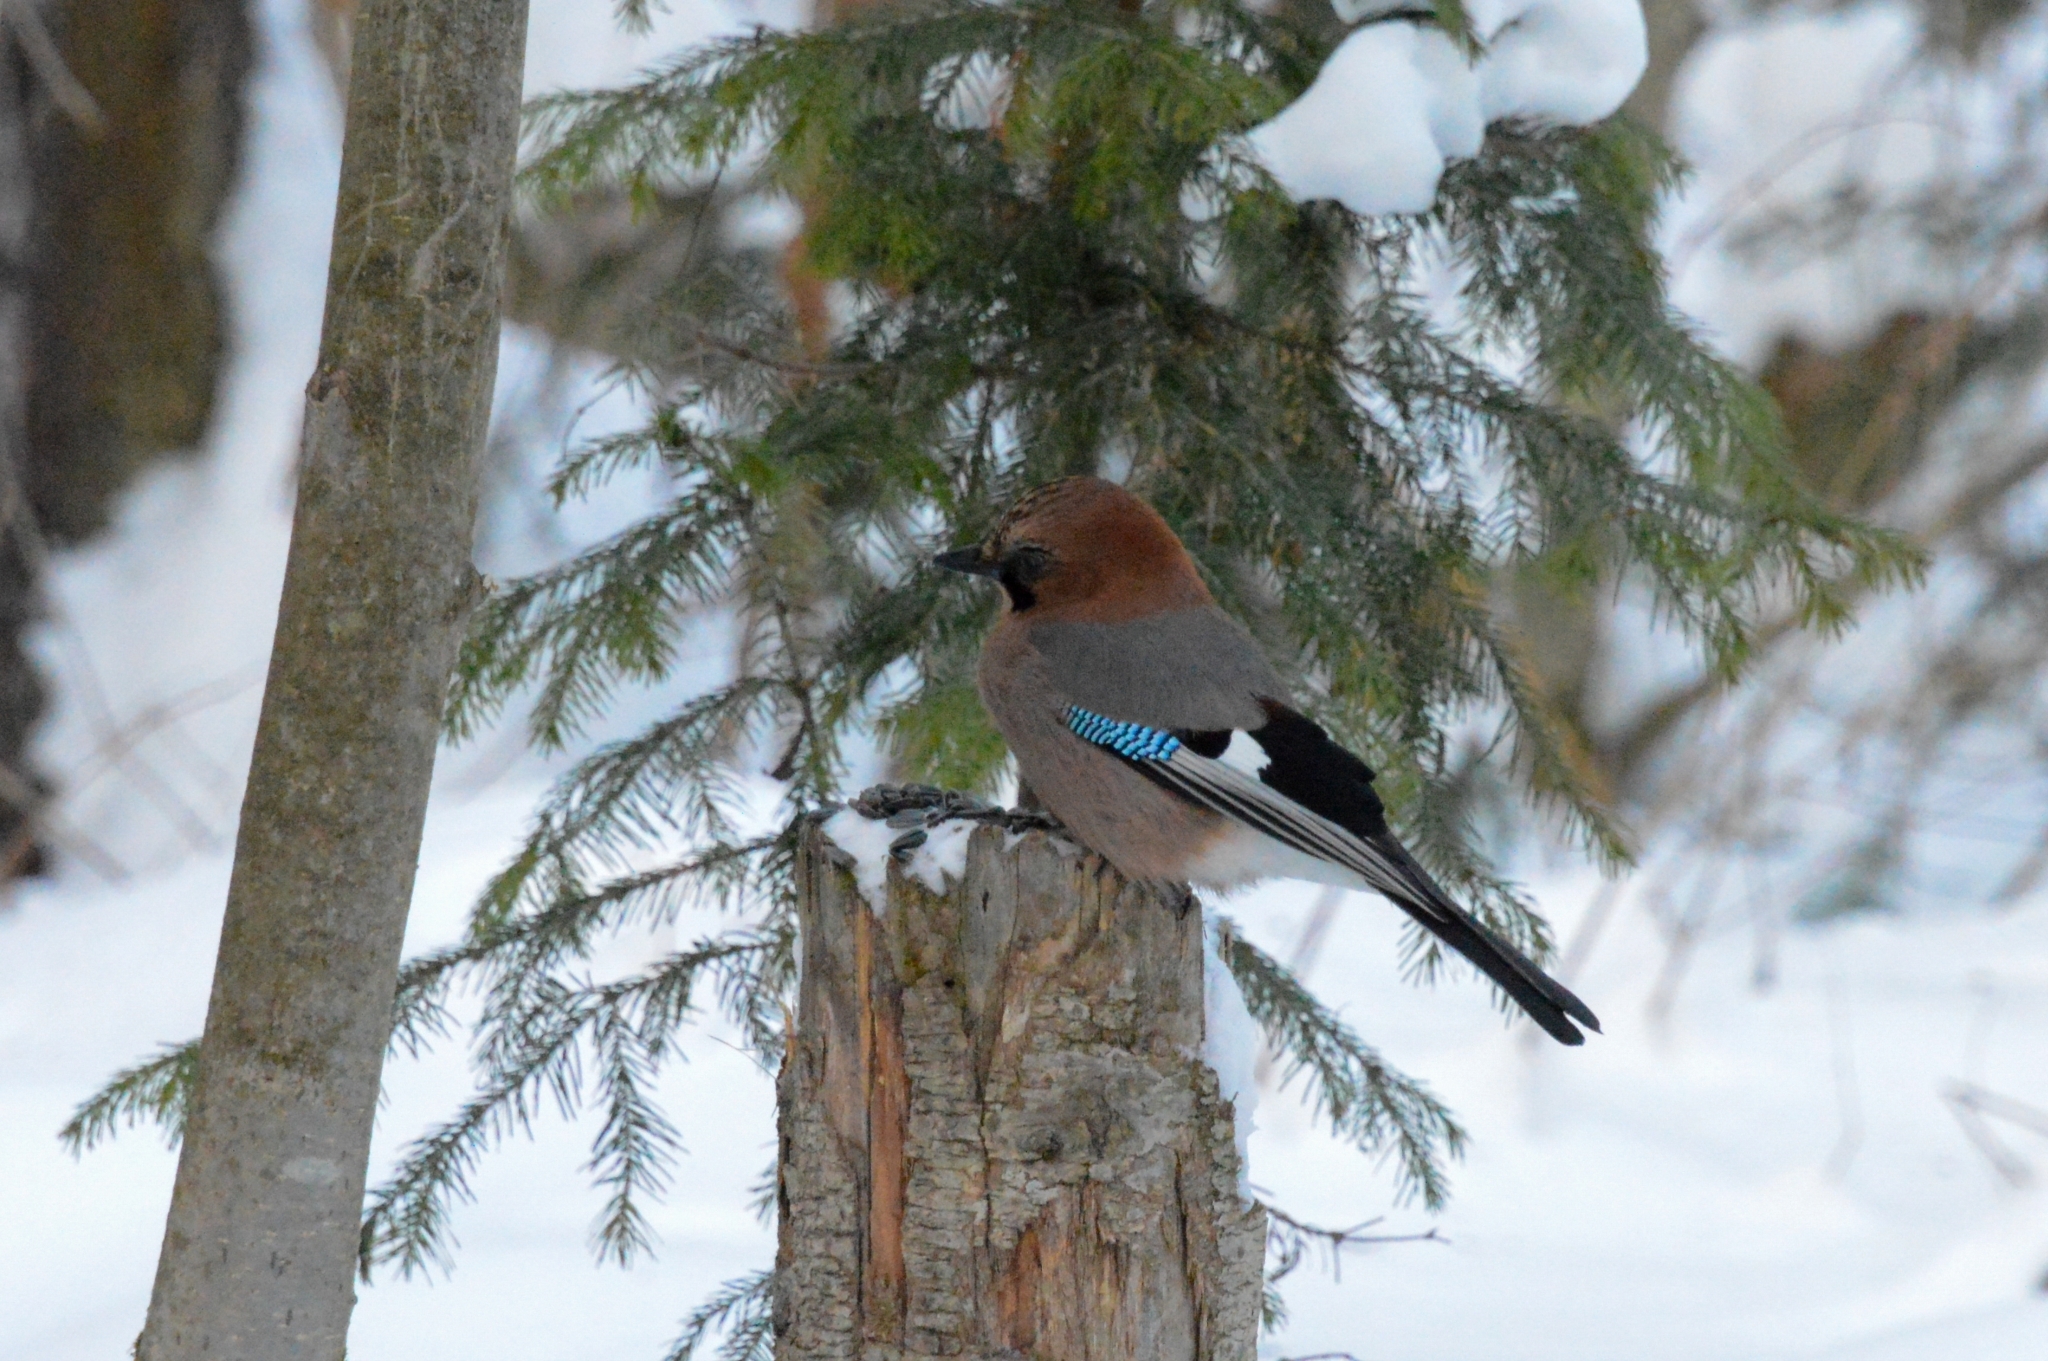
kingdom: Animalia
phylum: Chordata
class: Aves
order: Passeriformes
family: Corvidae
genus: Garrulus
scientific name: Garrulus glandarius
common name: Eurasian jay
